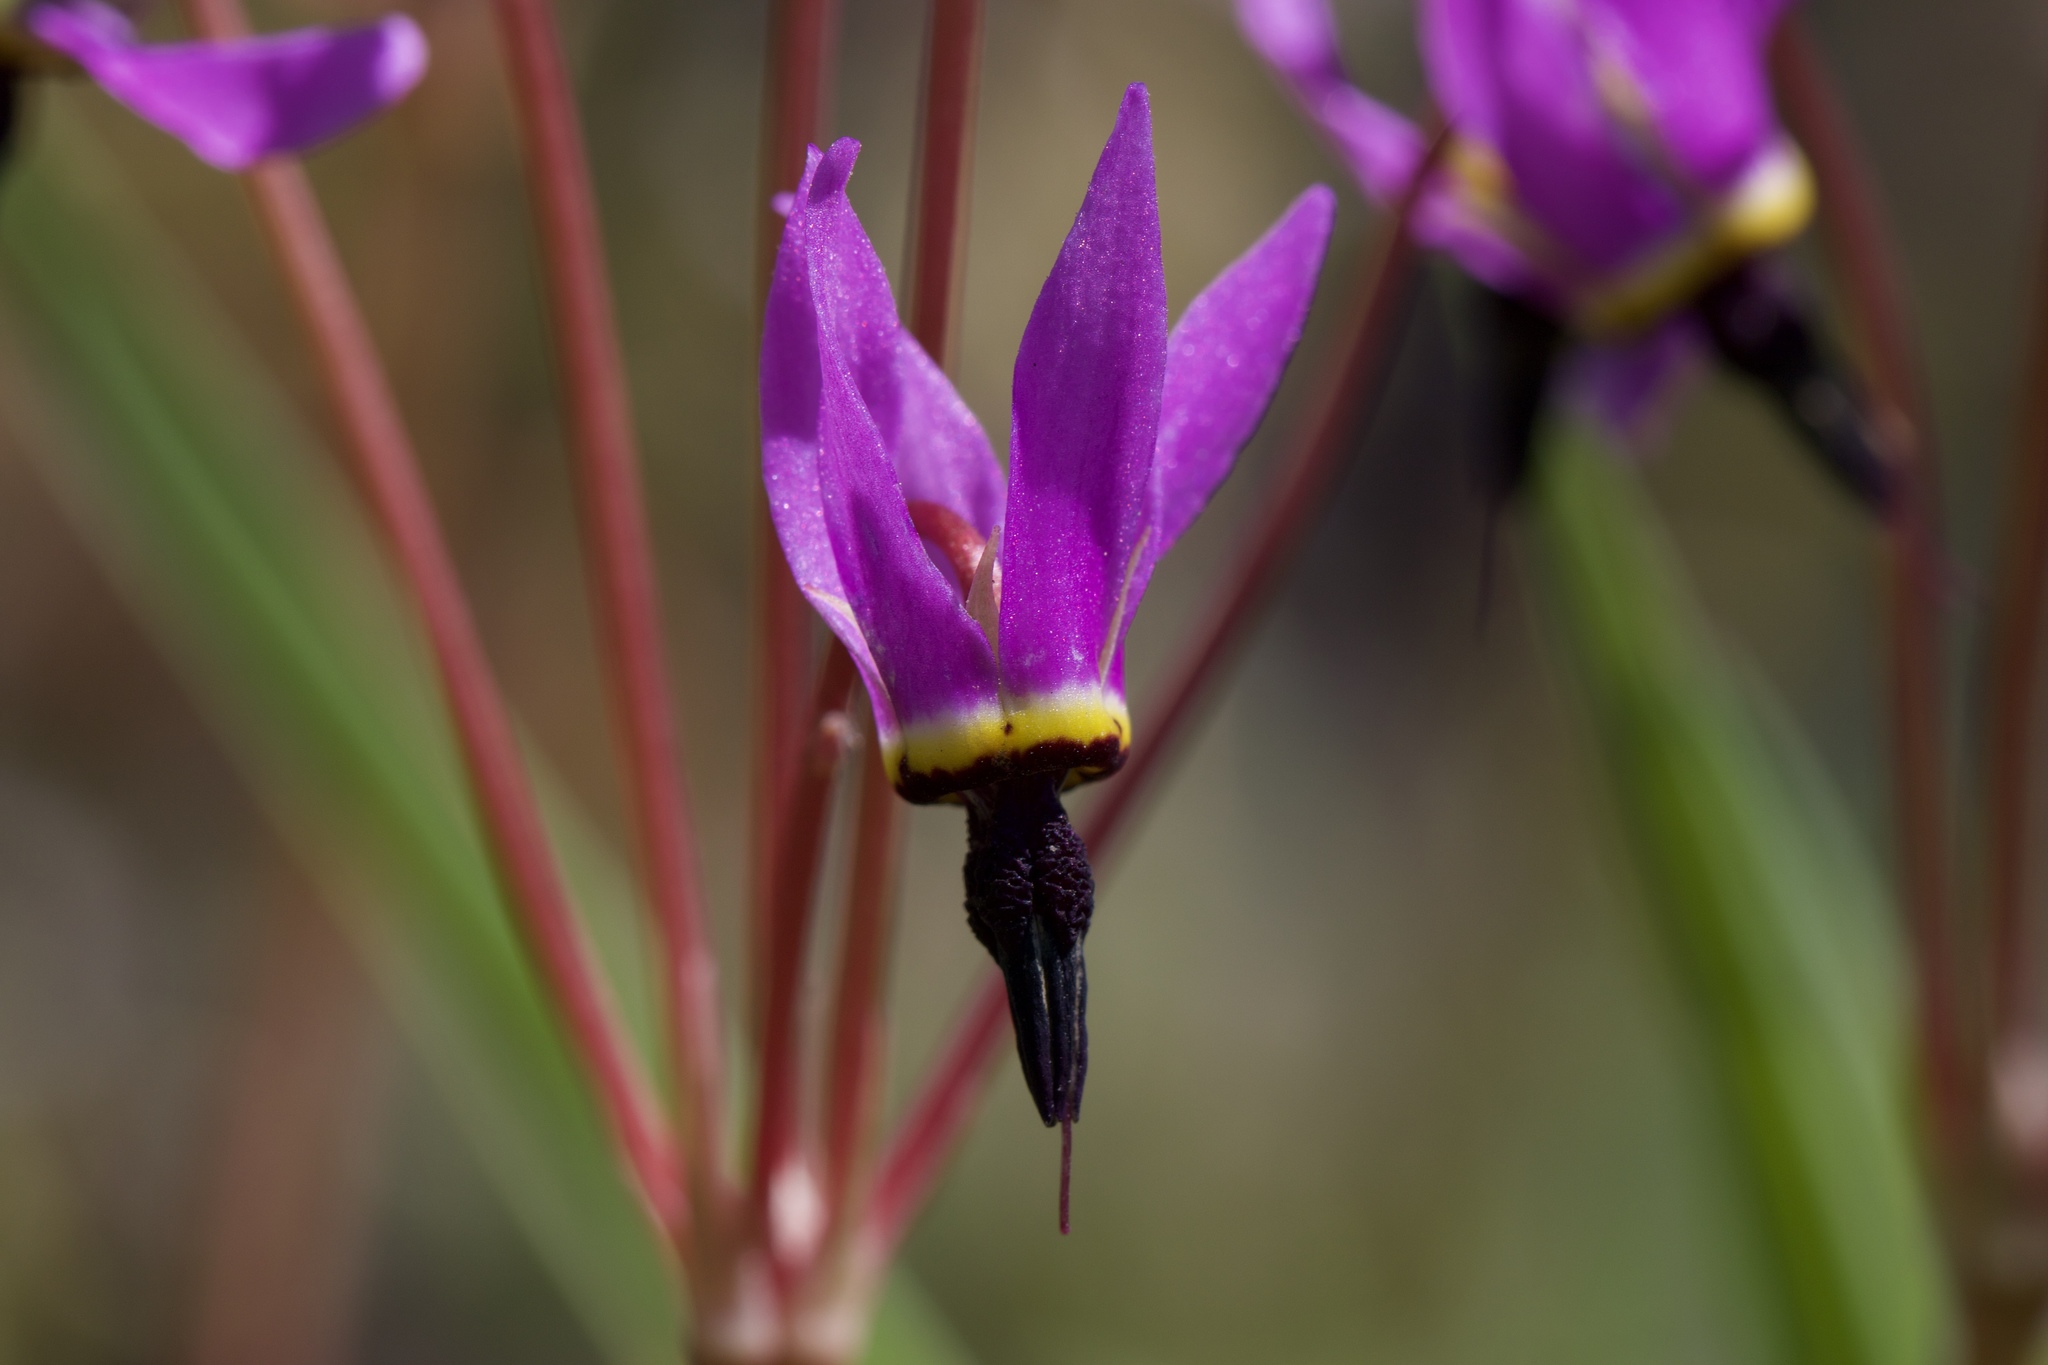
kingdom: Plantae
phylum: Tracheophyta
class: Magnoliopsida
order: Ericales
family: Primulaceae
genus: Dodecatheon
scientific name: Dodecatheon hendersonii
